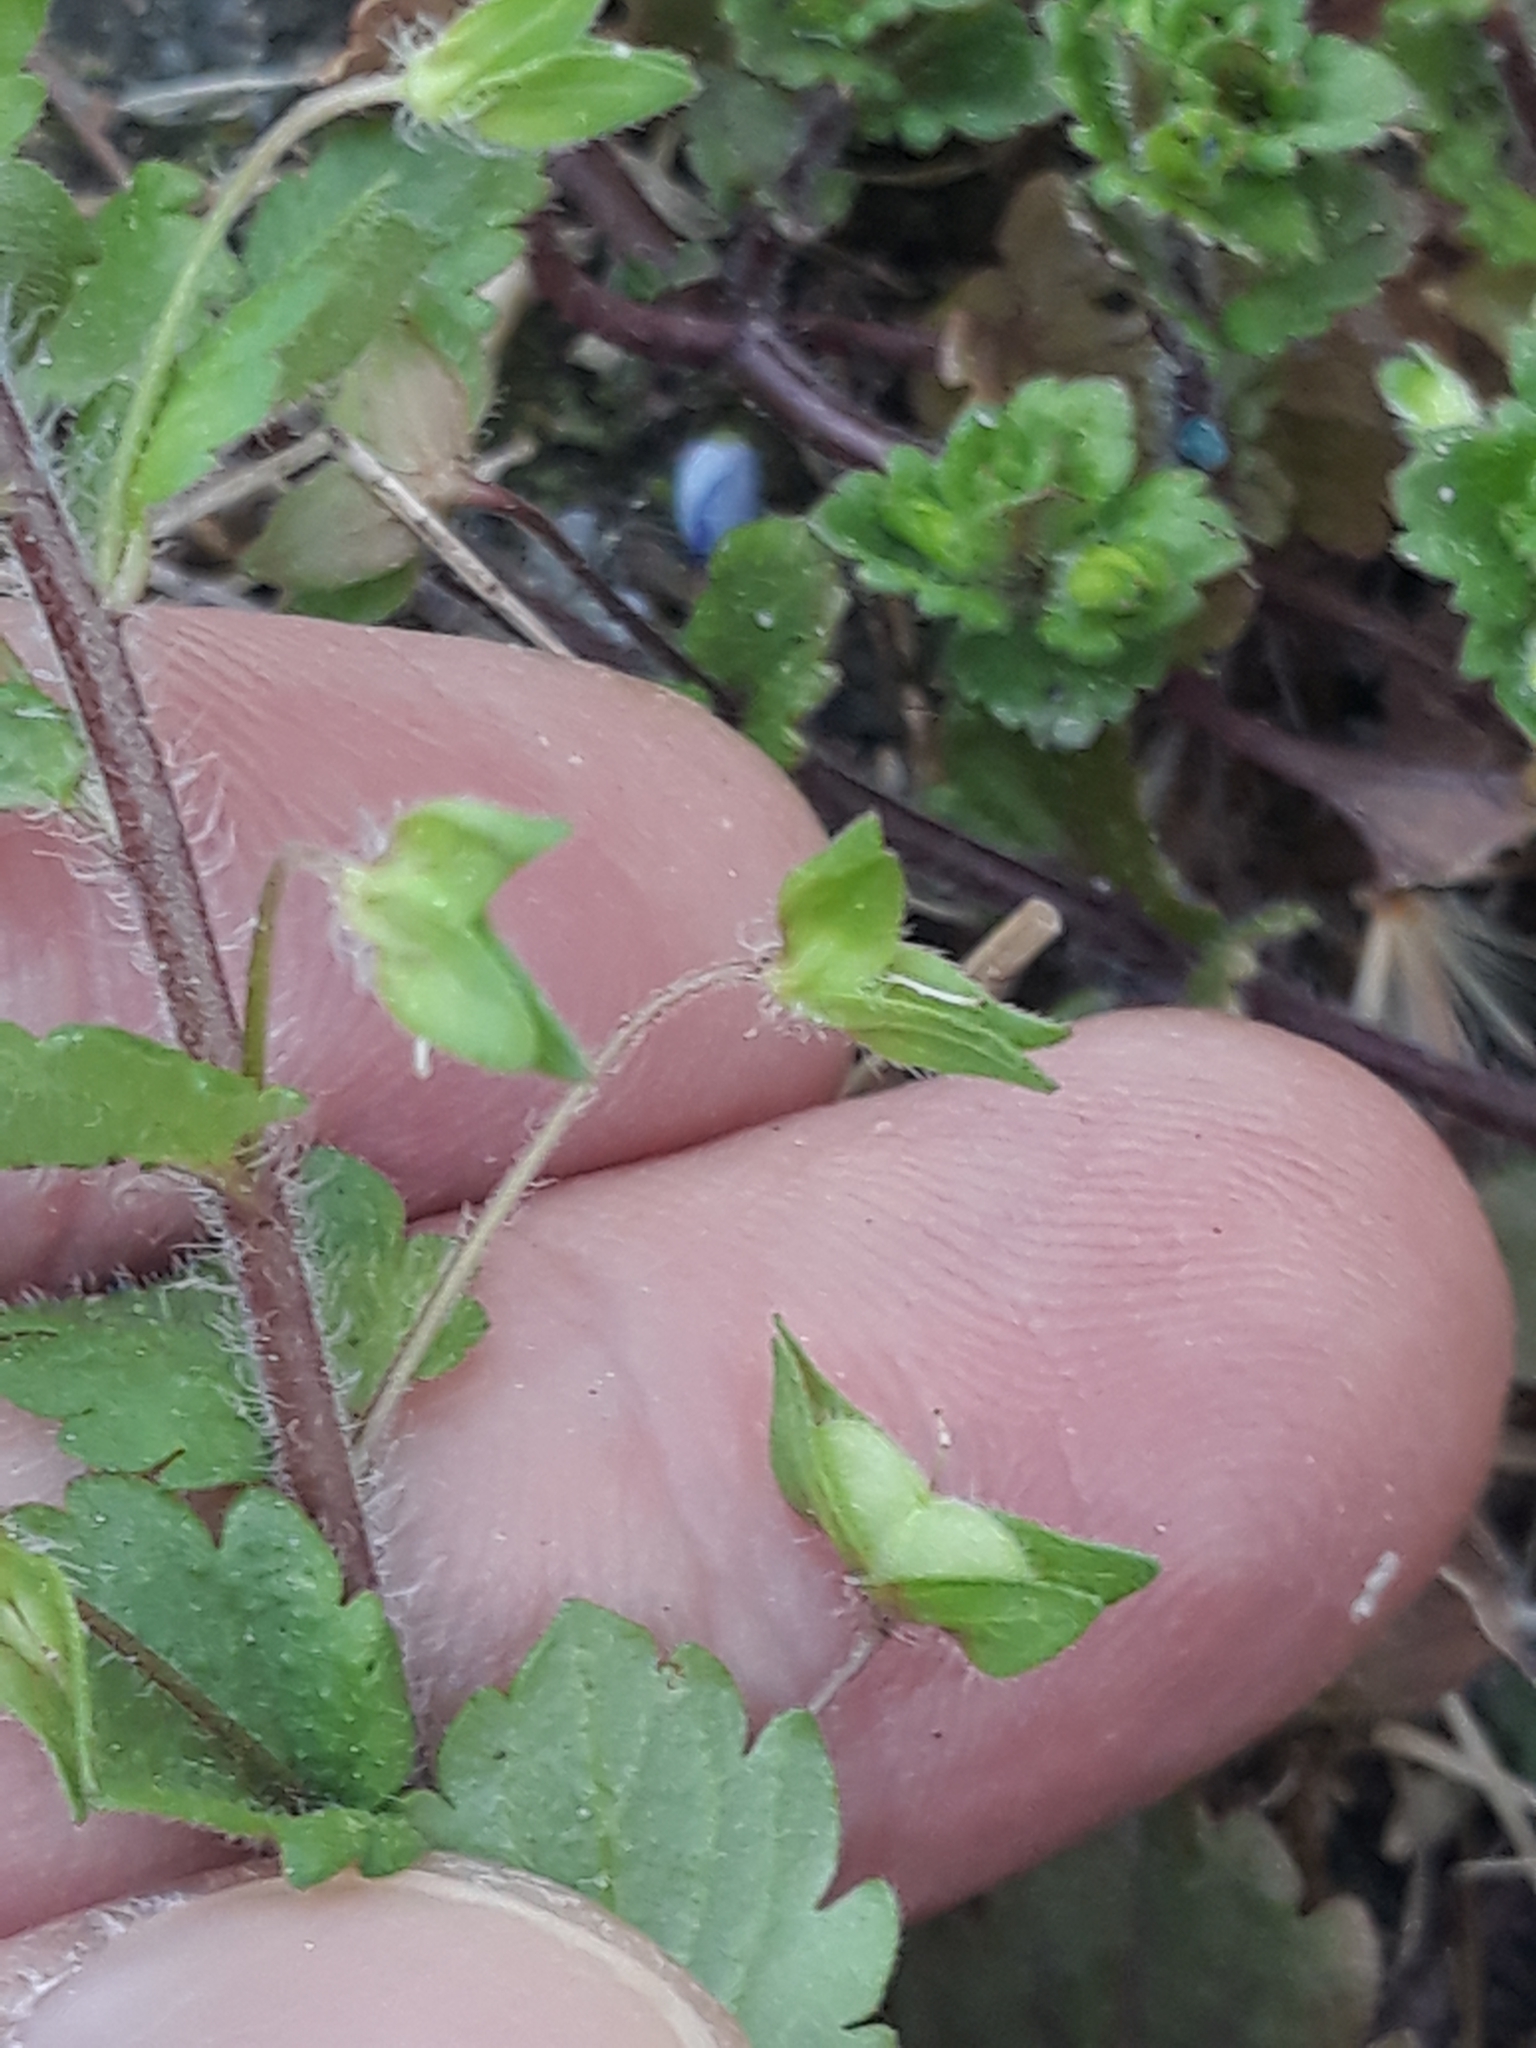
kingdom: Plantae
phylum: Tracheophyta
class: Magnoliopsida
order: Lamiales
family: Plantaginaceae
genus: Veronica
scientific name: Veronica persica
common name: Common field-speedwell
